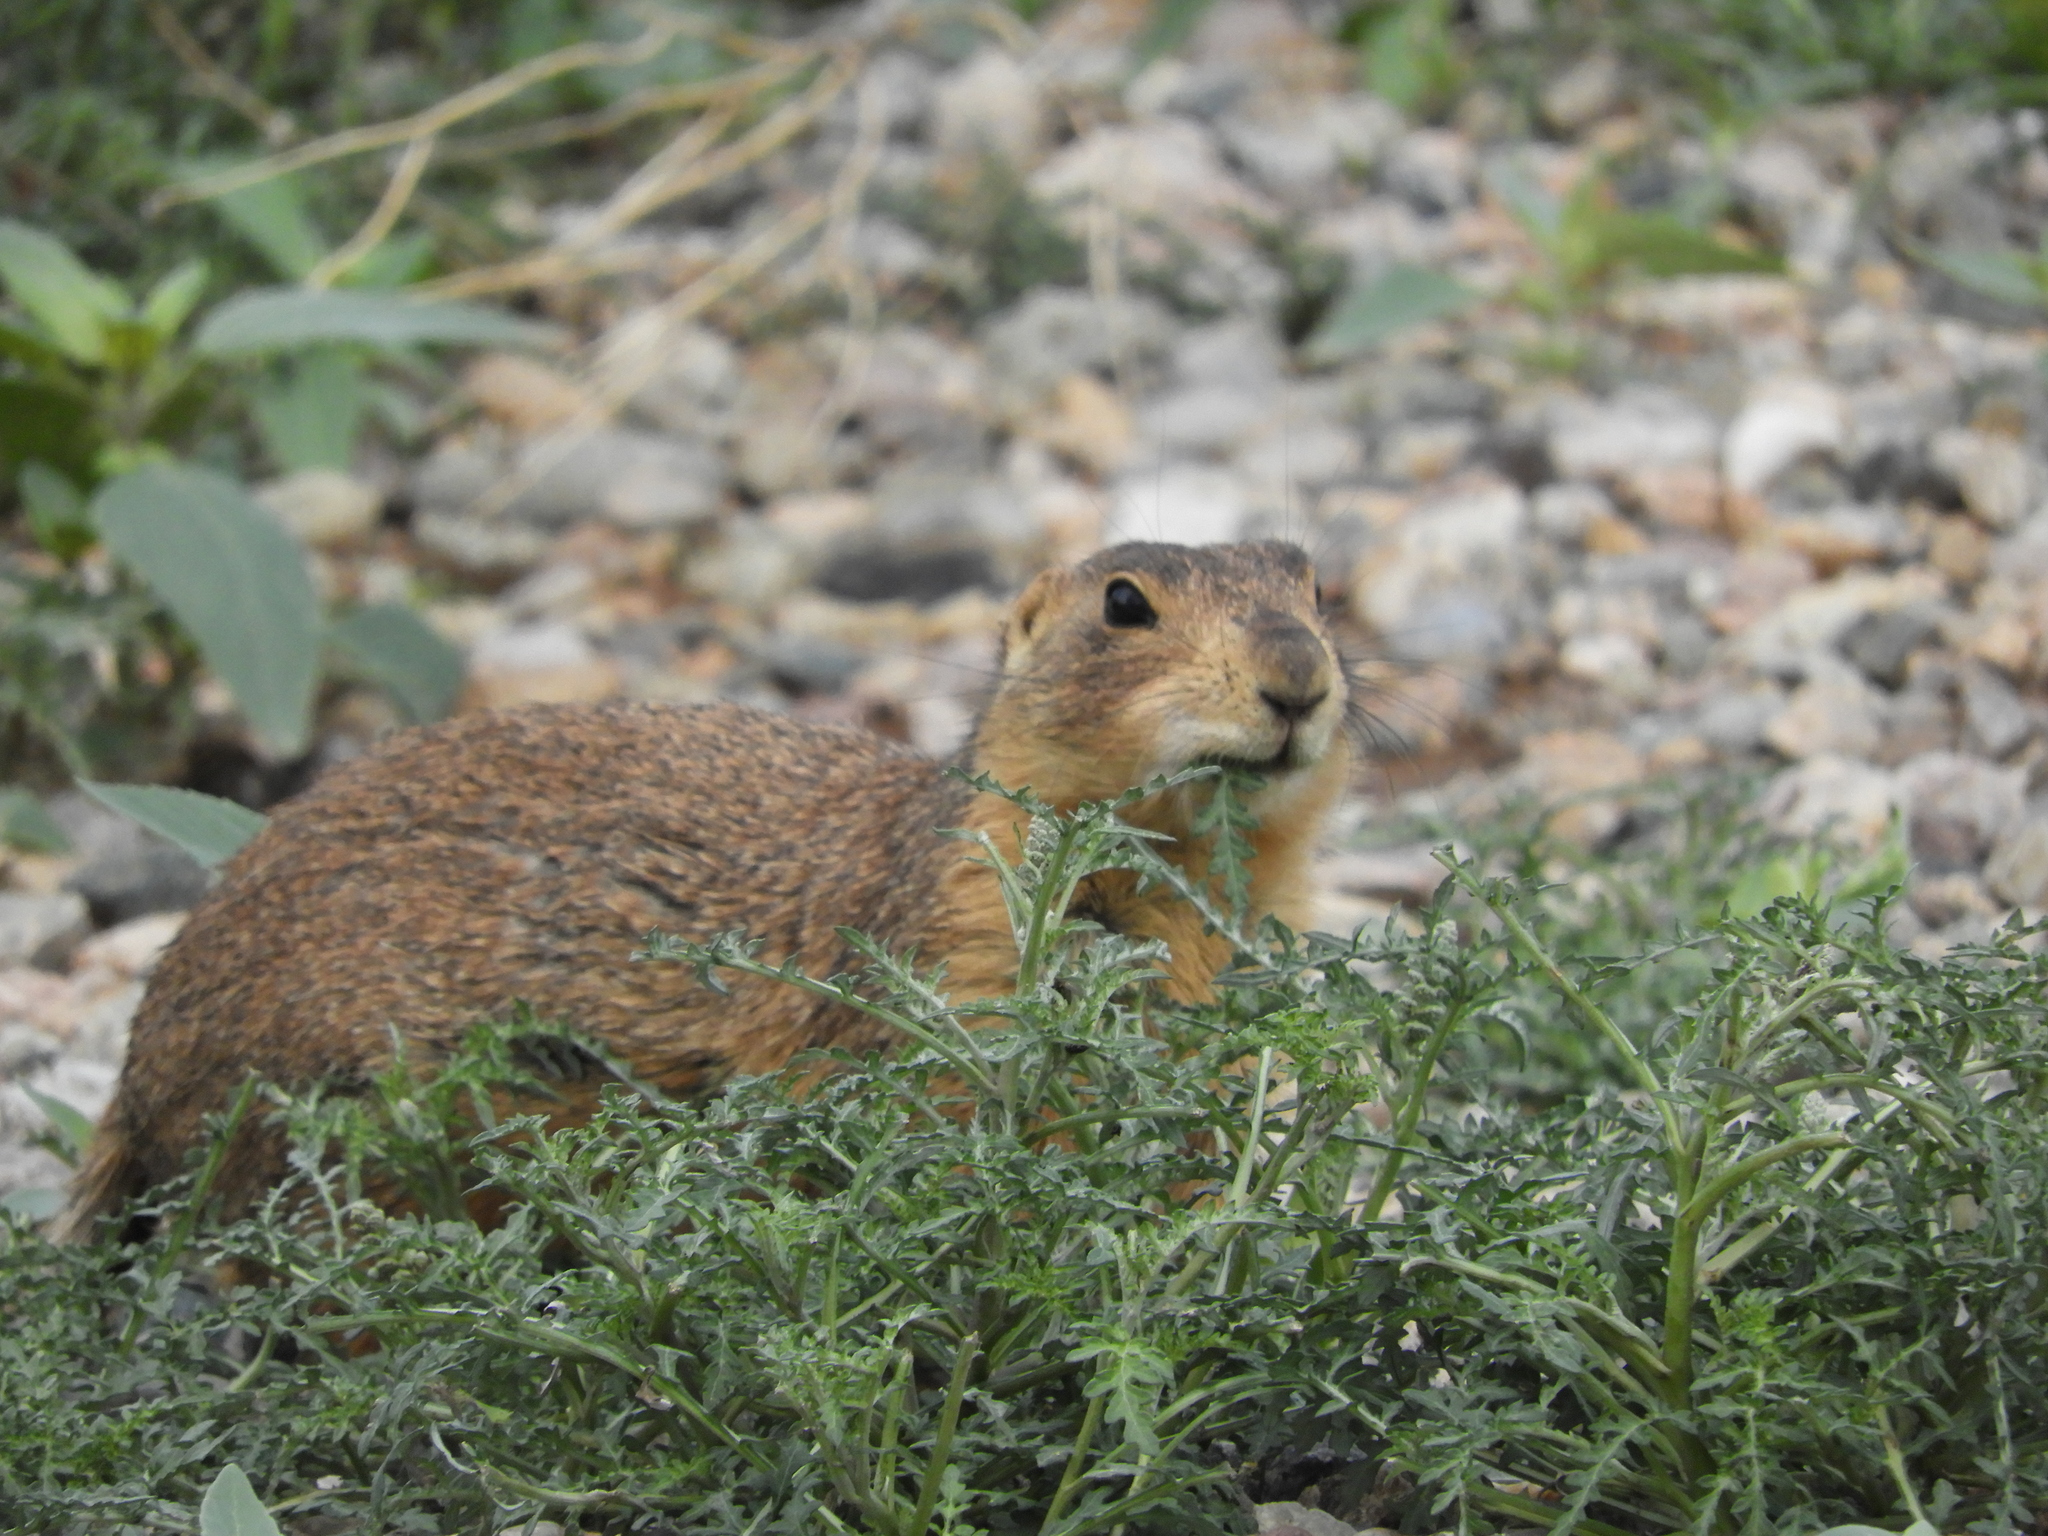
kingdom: Animalia
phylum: Chordata
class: Mammalia
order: Rodentia
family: Sciuridae
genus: Cynomys
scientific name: Cynomys gunnisoni
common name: Gunnison's prairie dog
